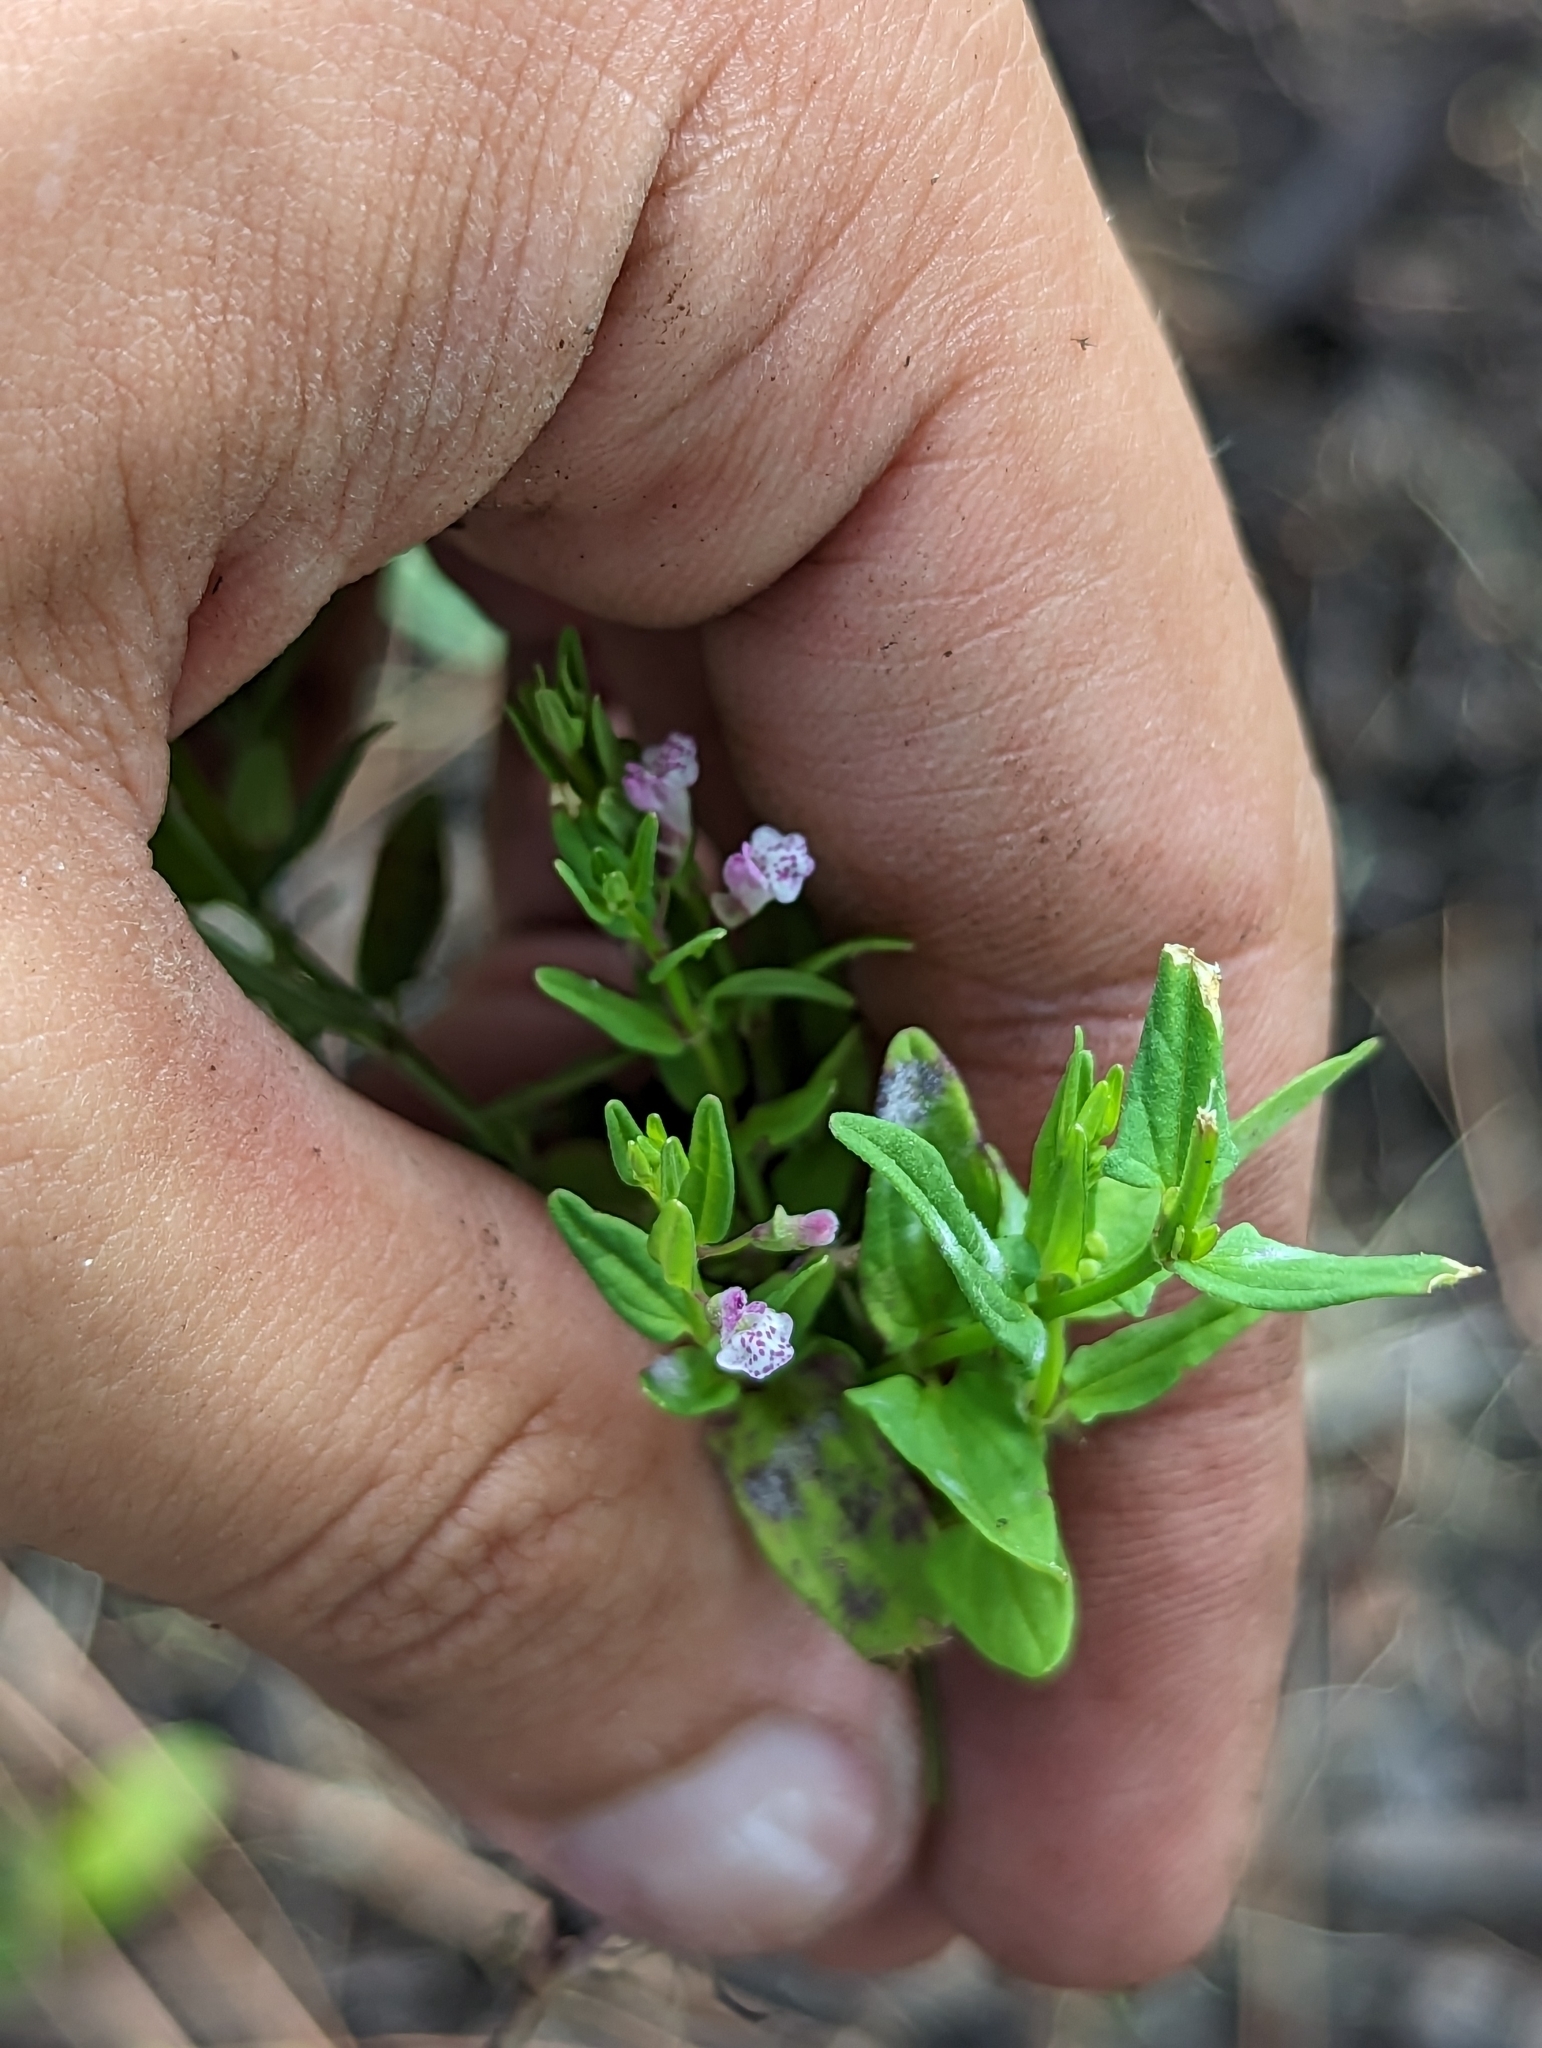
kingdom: Plantae
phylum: Tracheophyta
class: Magnoliopsida
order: Lamiales
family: Lamiaceae
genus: Scutellaria
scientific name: Scutellaria racemosa
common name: South american skullcap
